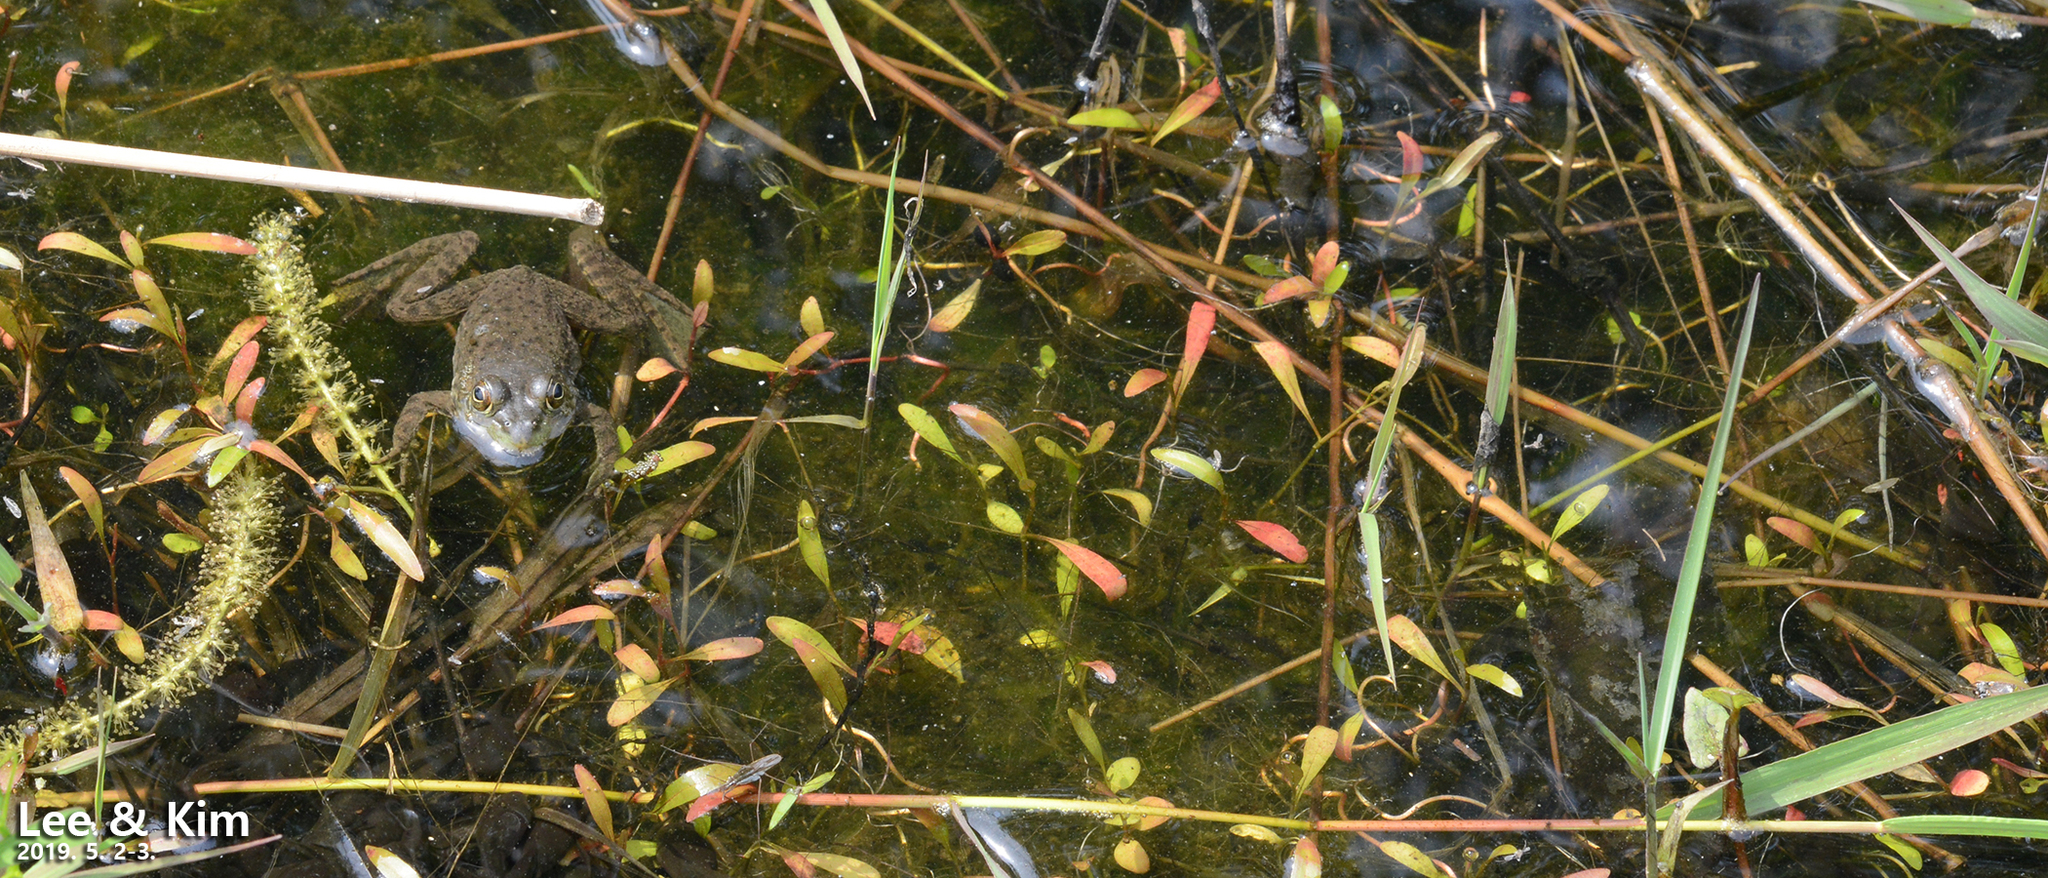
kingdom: Animalia
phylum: Chordata
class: Amphibia
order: Anura
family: Ranidae
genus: Lithobates
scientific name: Lithobates catesbeianus
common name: American bullfrog
